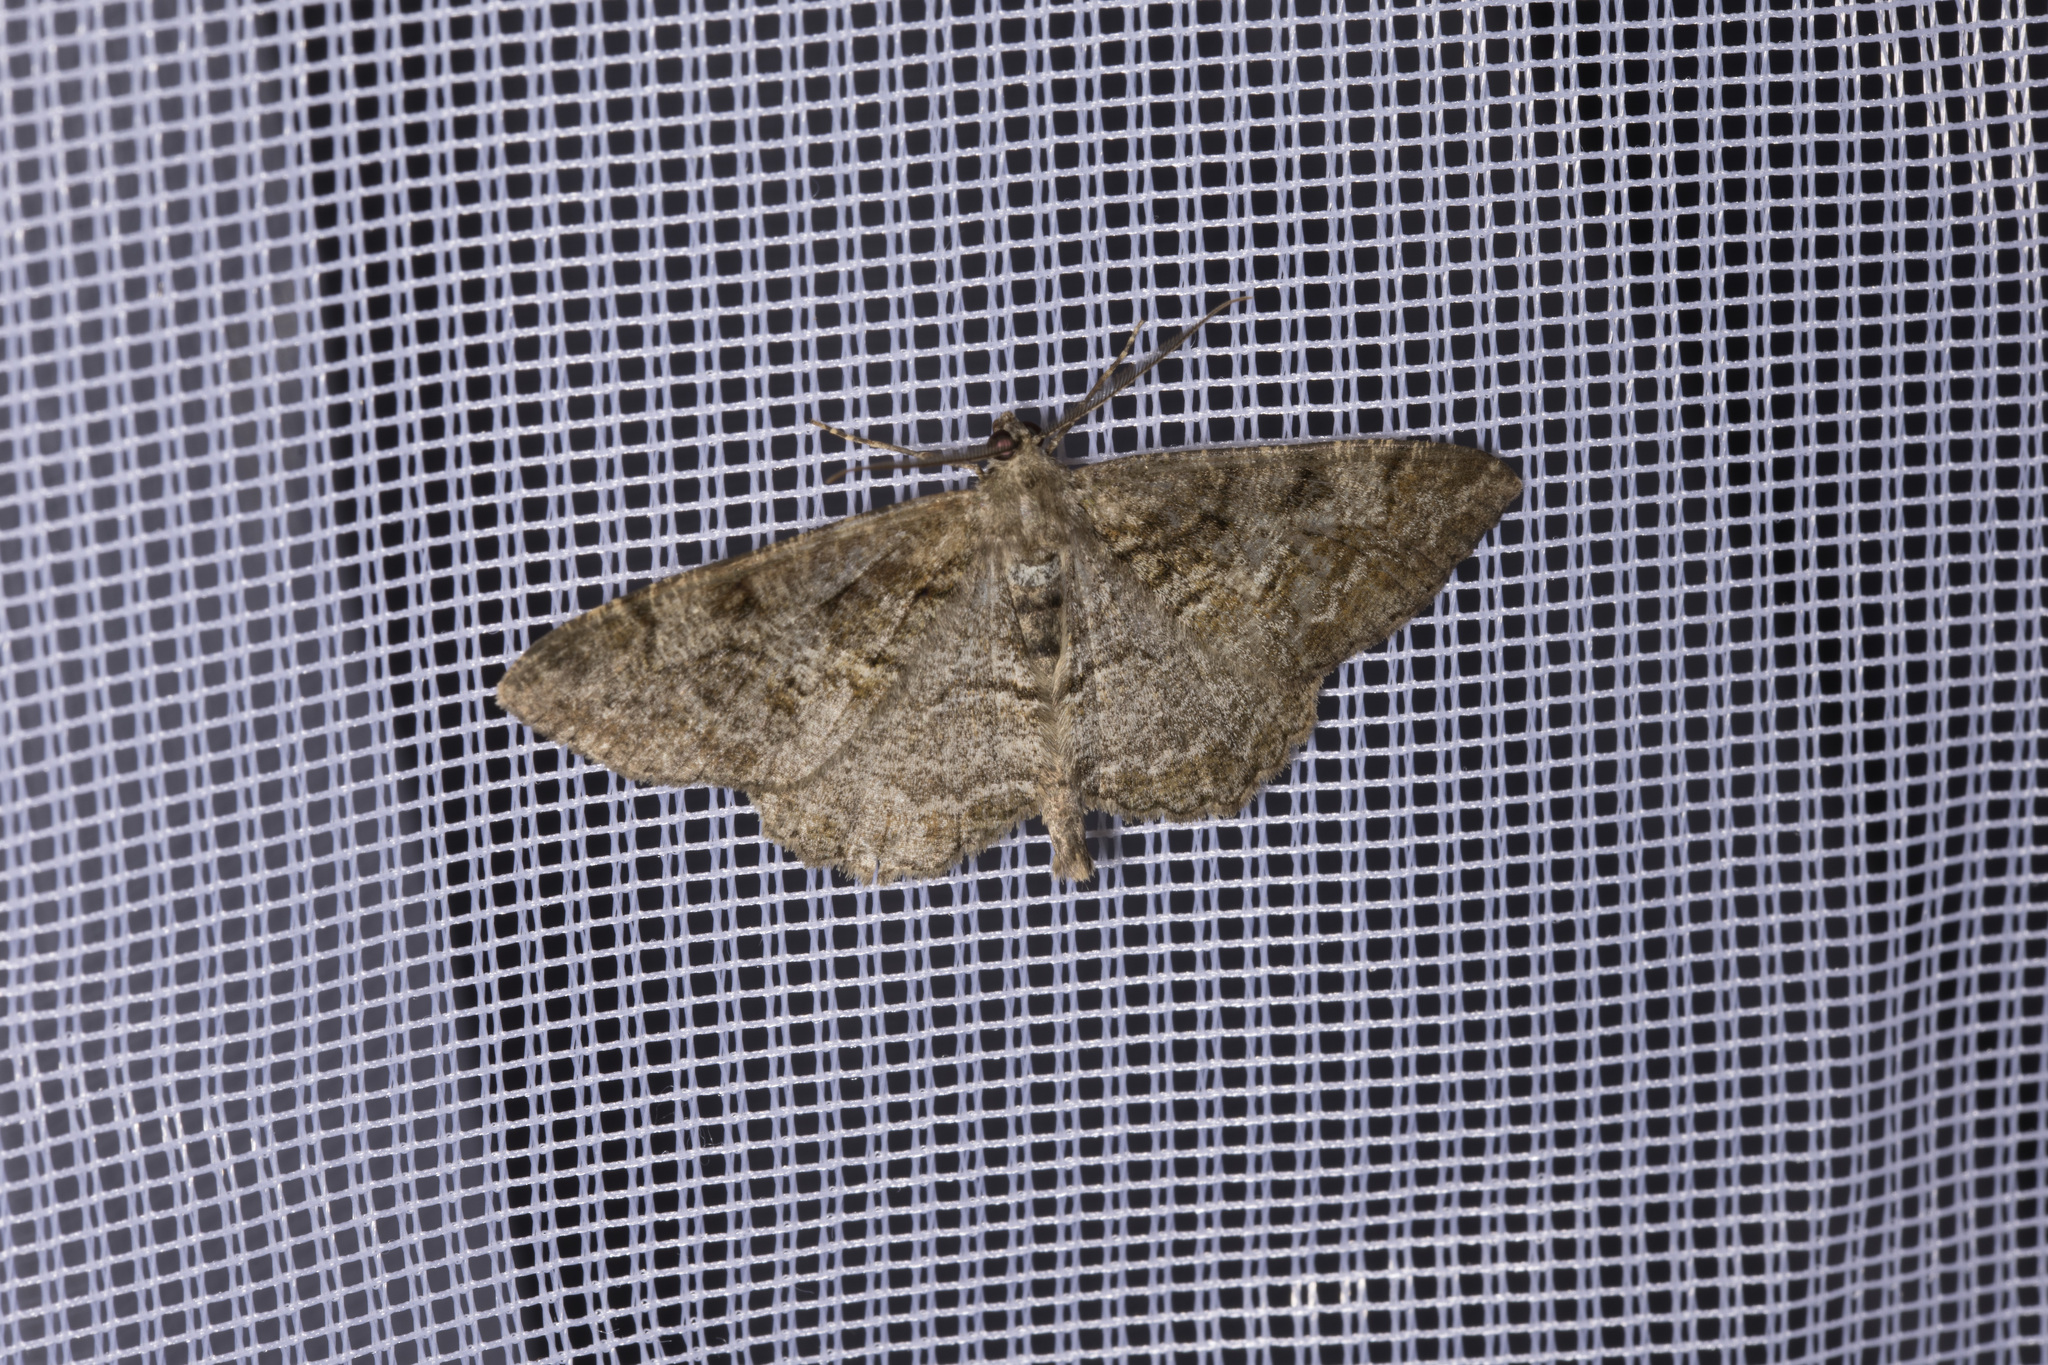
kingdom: Animalia
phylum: Arthropoda
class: Insecta
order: Lepidoptera
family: Geometridae
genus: Alcis
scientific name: Alcis repandata
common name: Mottled beauty
